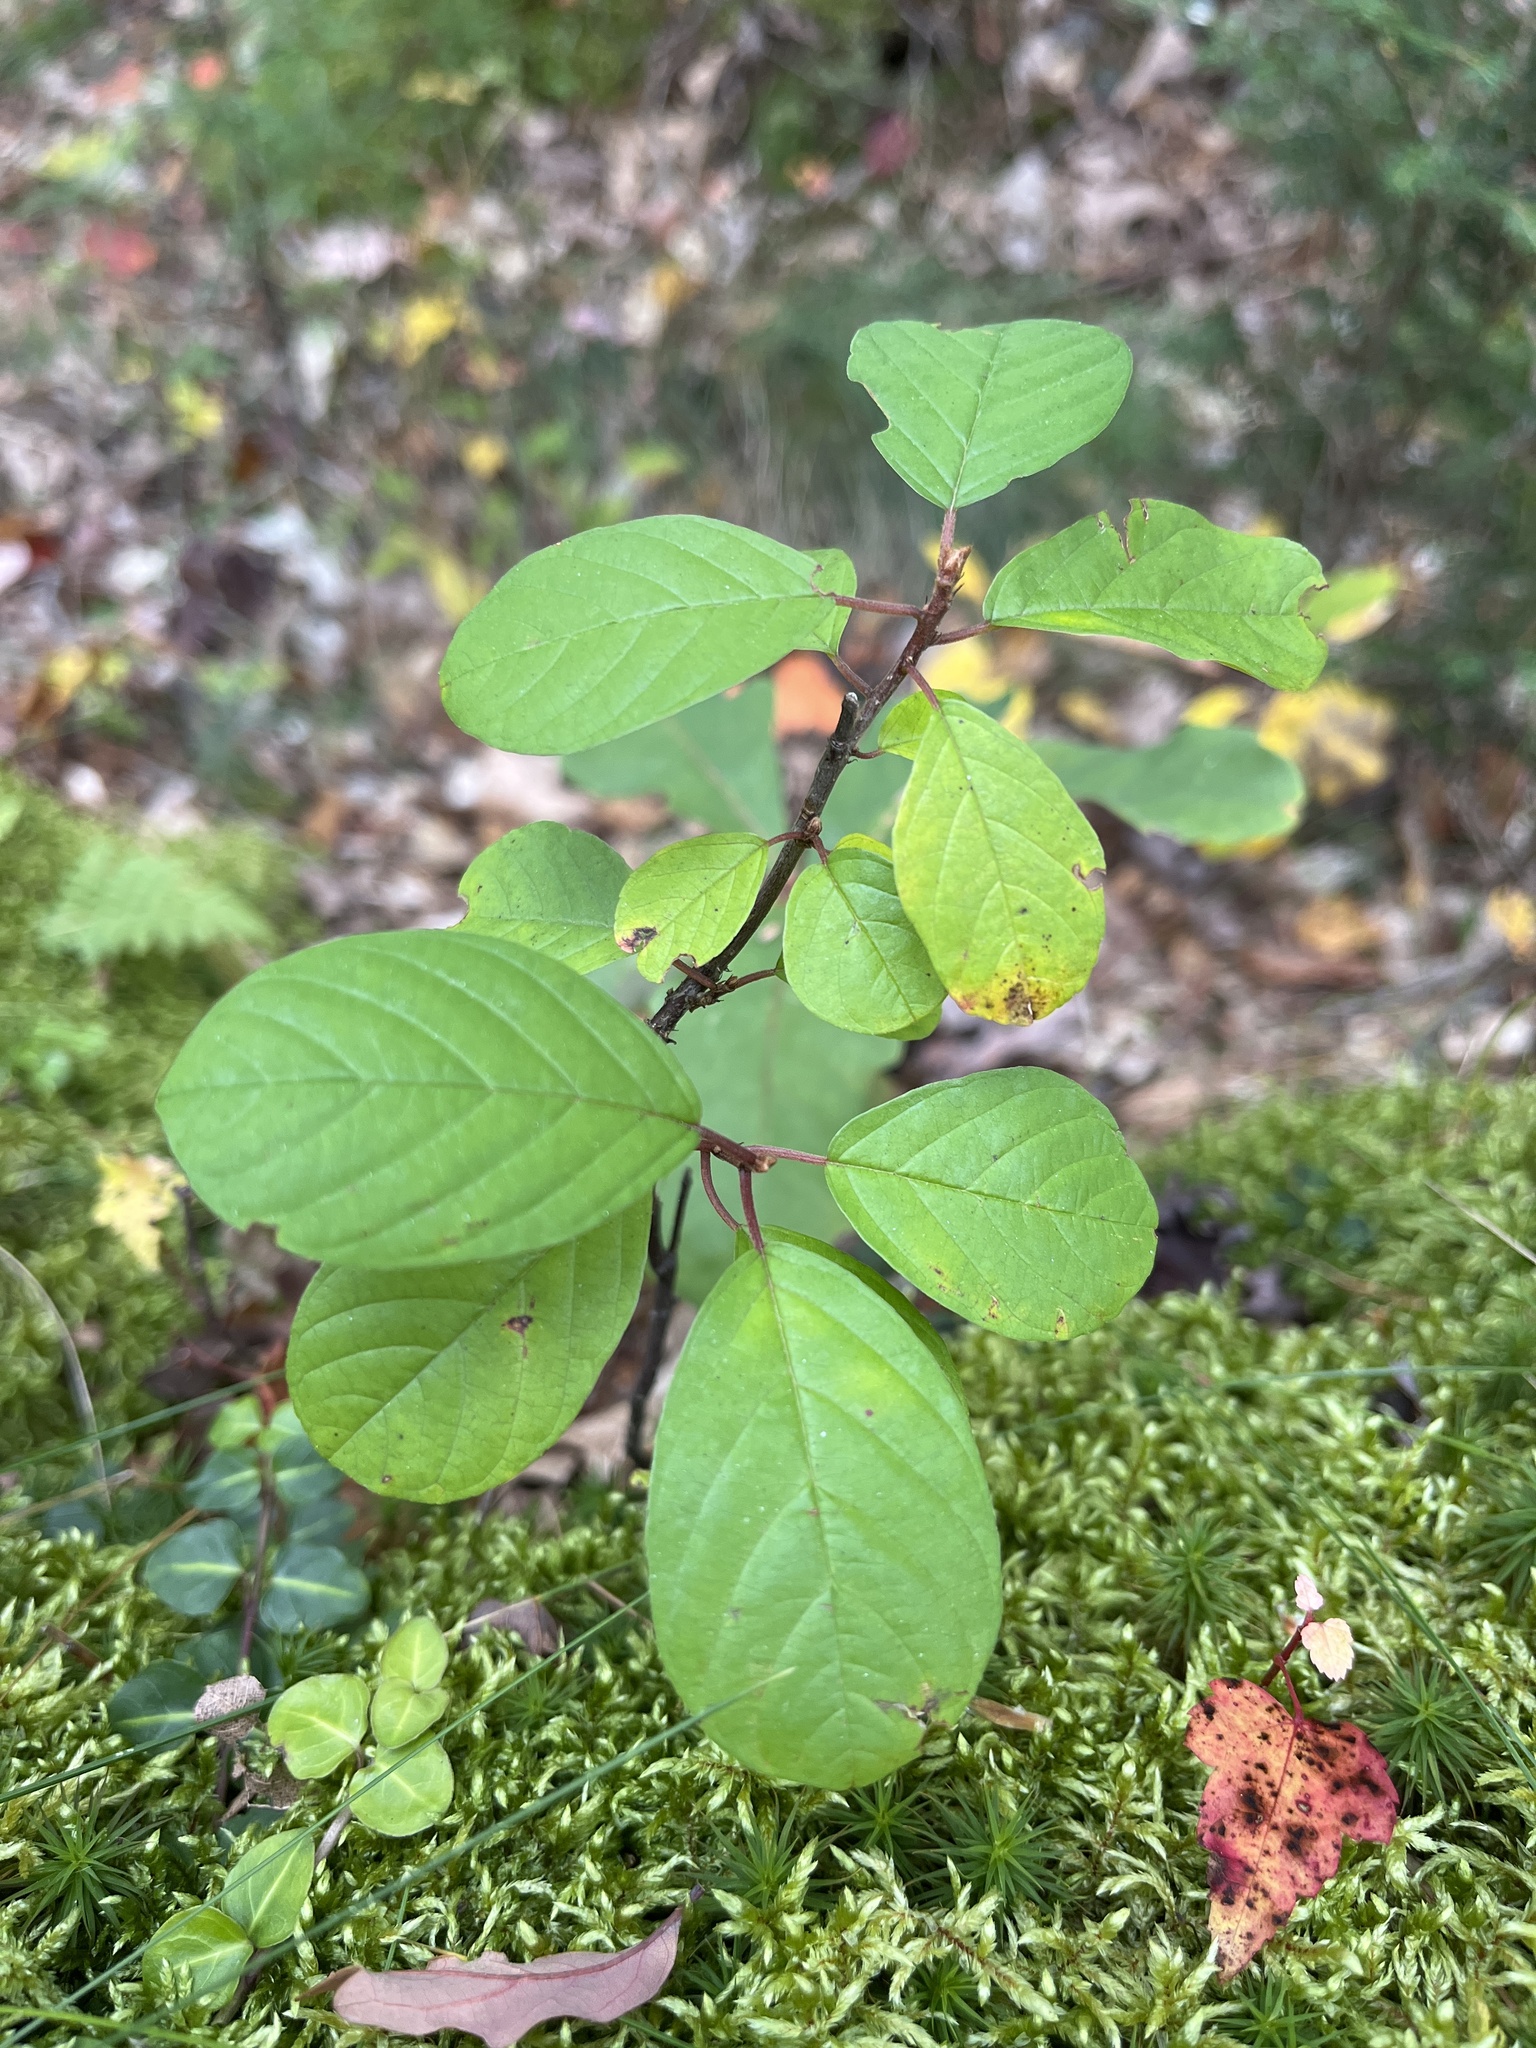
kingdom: Plantae
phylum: Tracheophyta
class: Magnoliopsida
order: Rosales
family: Rhamnaceae
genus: Frangula
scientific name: Frangula alnus
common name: Alder buckthorn
